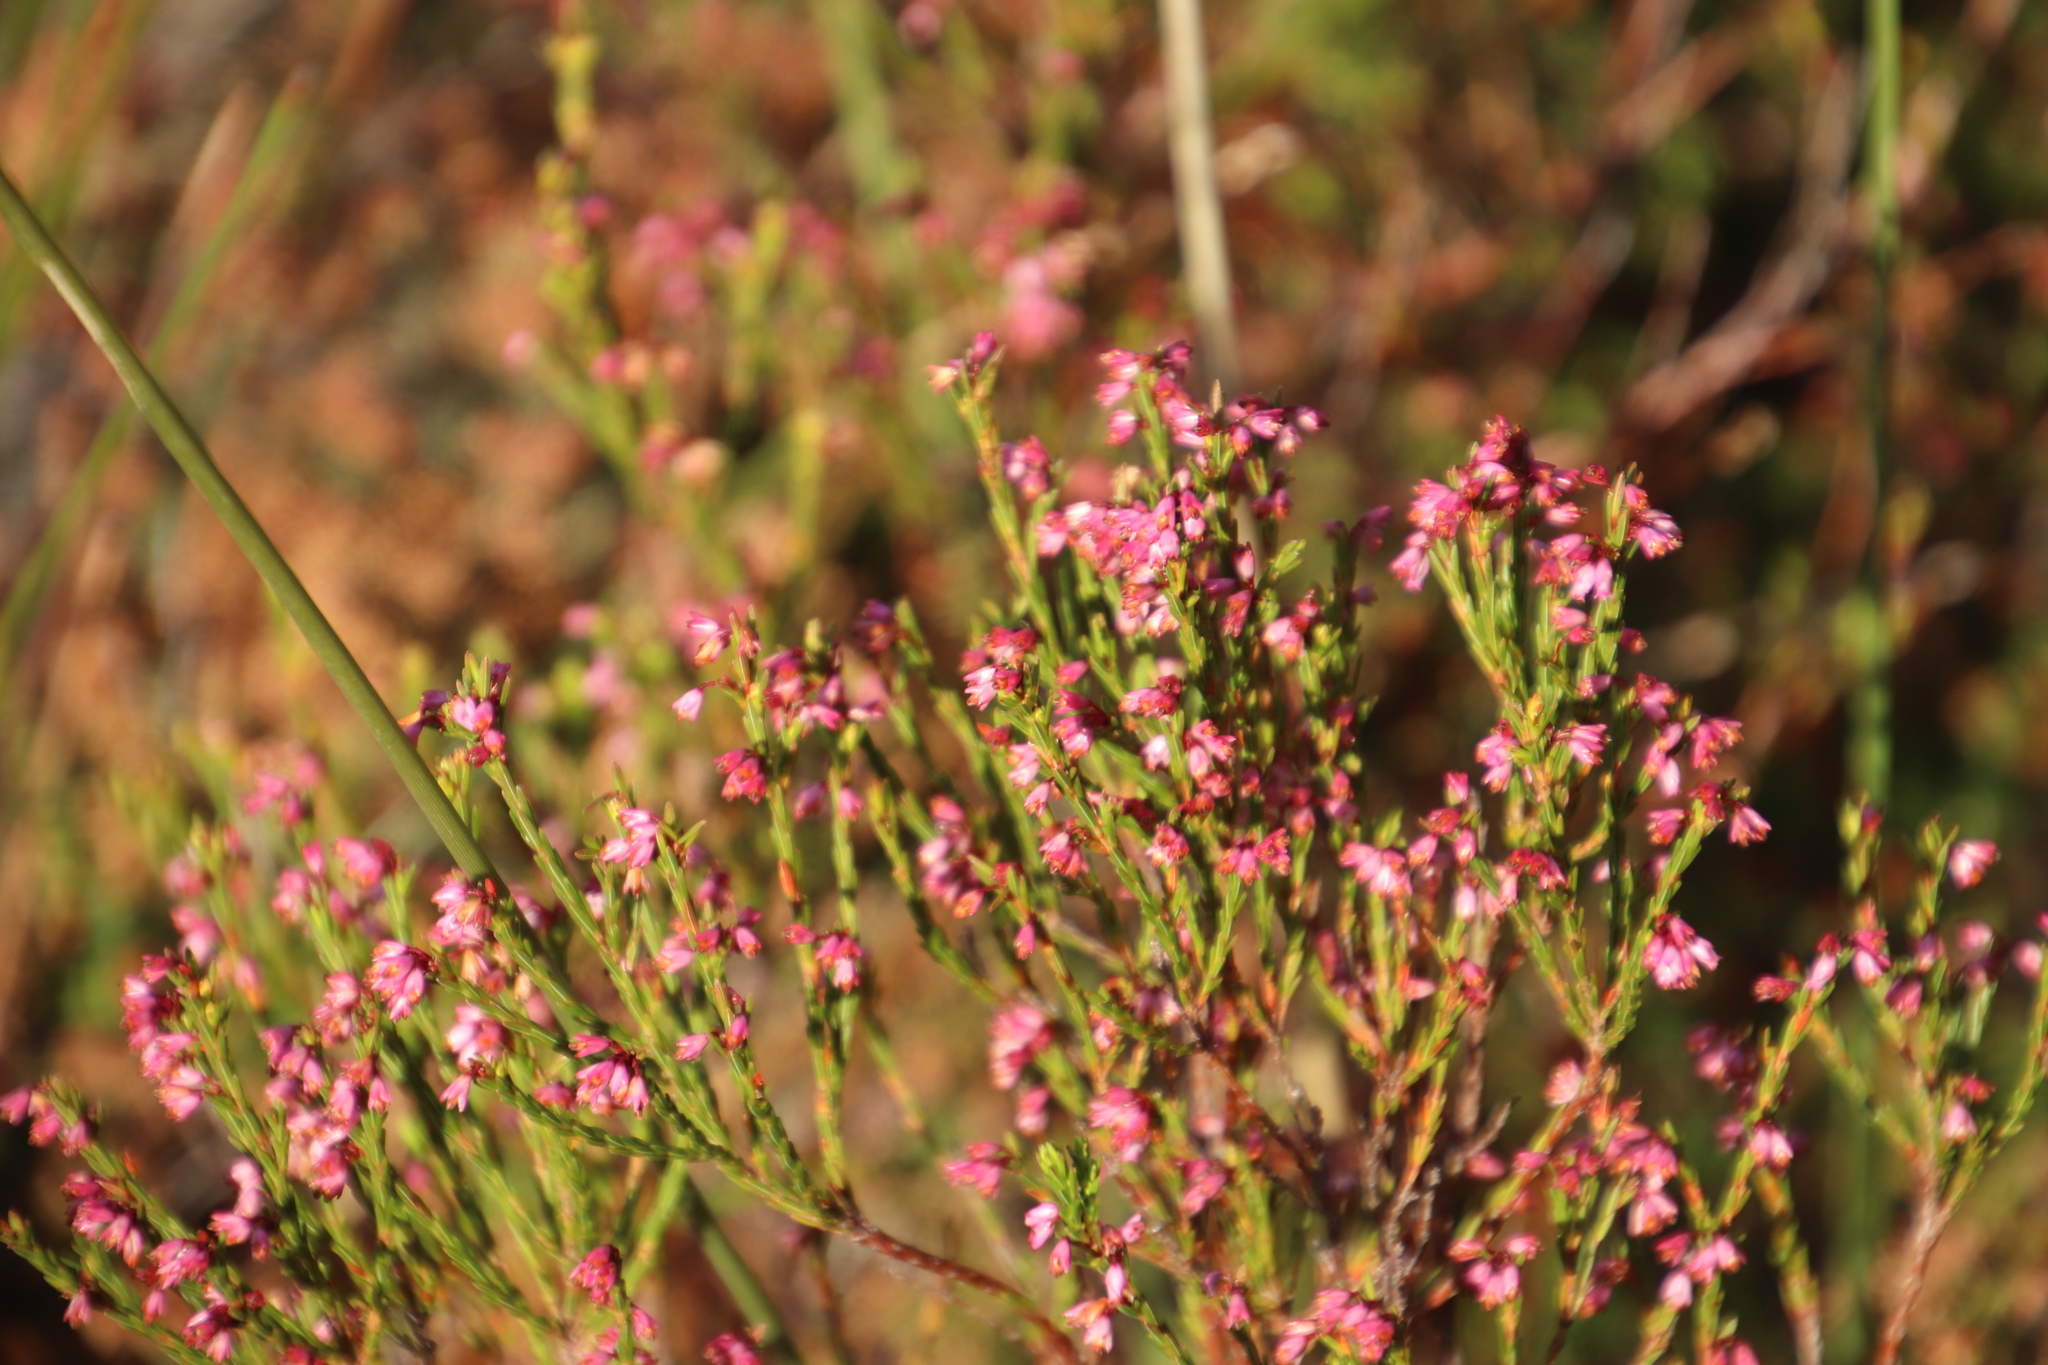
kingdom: Plantae
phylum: Tracheophyta
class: Magnoliopsida
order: Ericales
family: Ericaceae
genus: Erica
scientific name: Erica gnaphaloides
